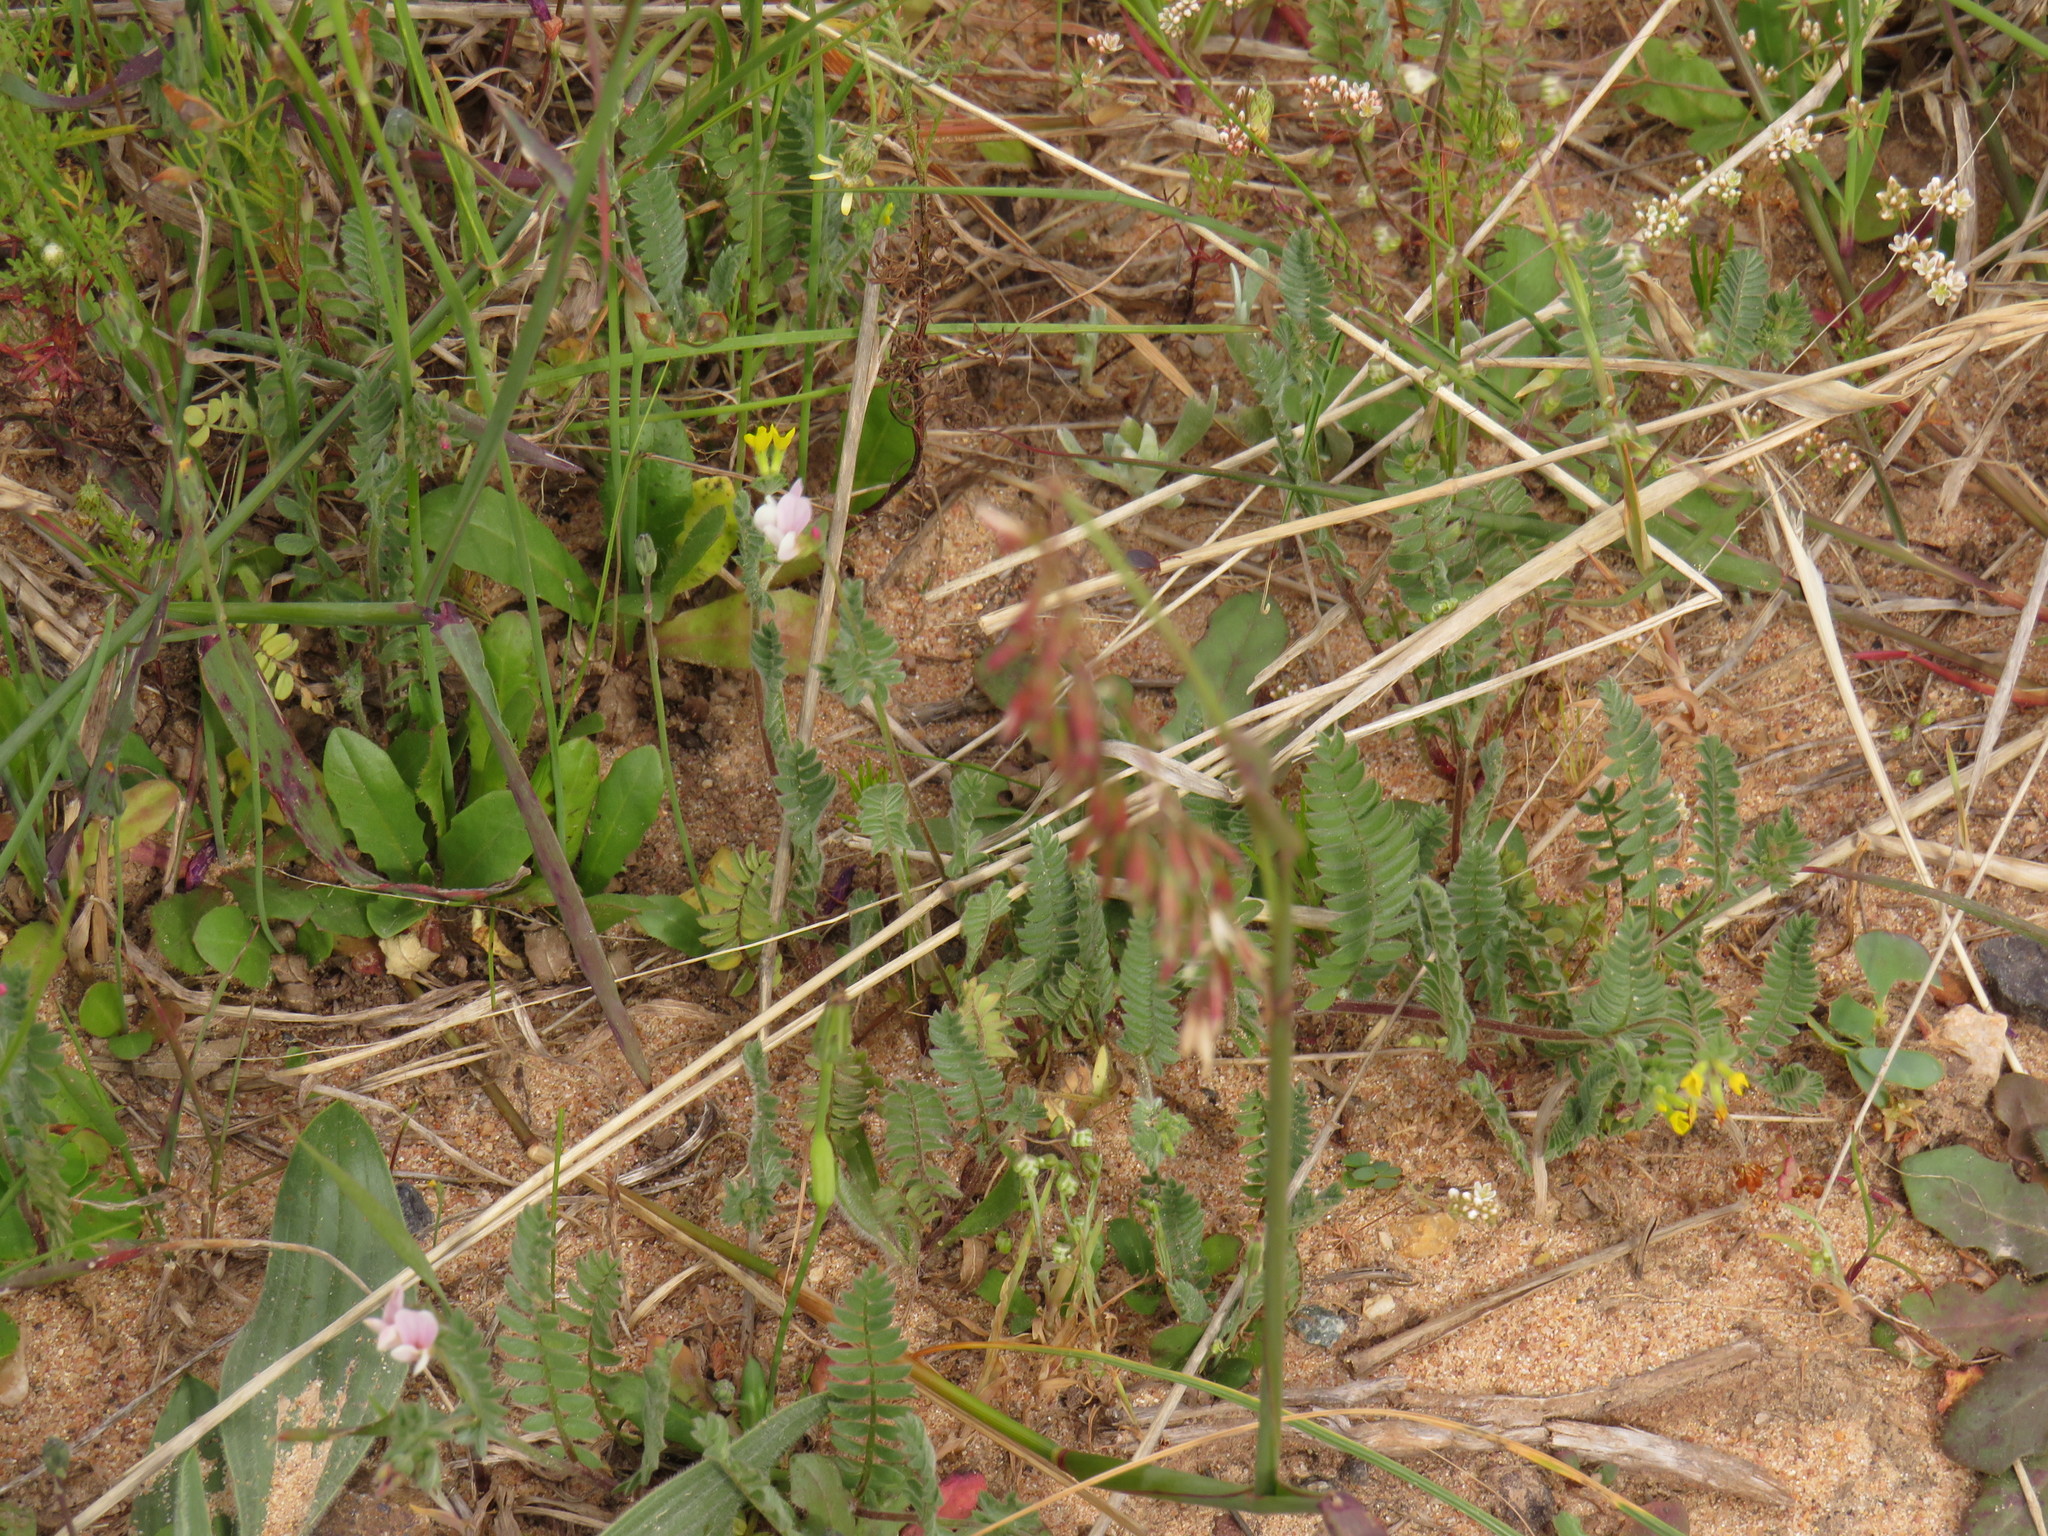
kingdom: Plantae
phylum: Tracheophyta
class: Magnoliopsida
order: Fabales
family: Fabaceae
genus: Ornithopus
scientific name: Ornithopus compressus
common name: Yellow serradella
